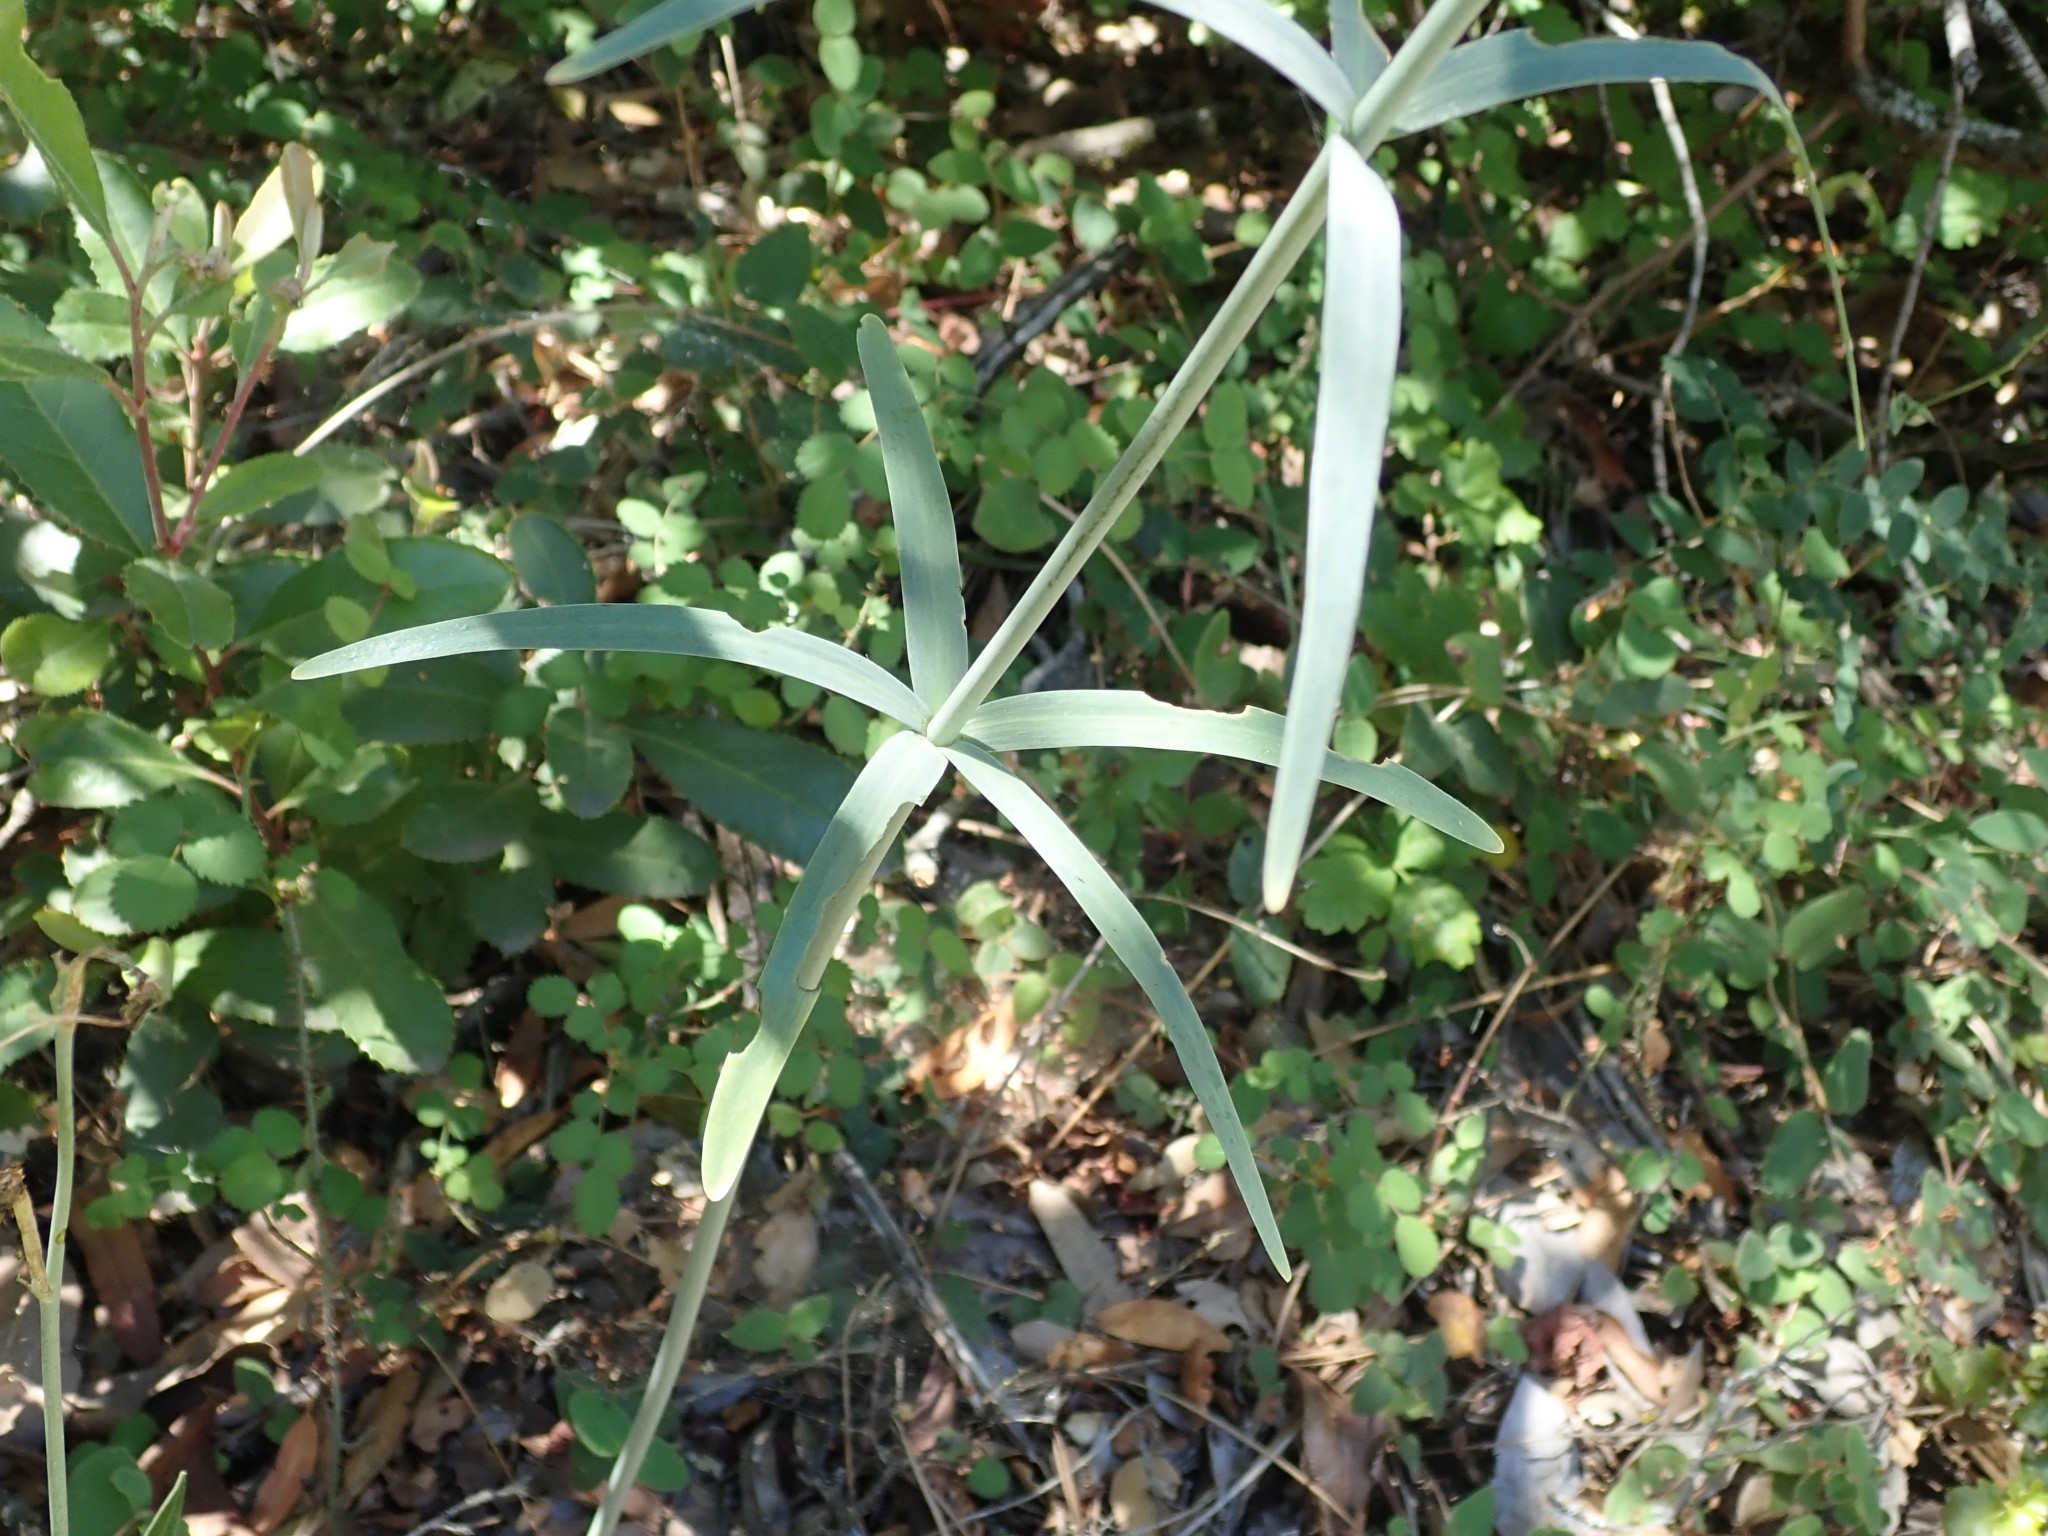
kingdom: Plantae
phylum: Tracheophyta
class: Liliopsida
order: Liliales
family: Liliaceae
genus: Fritillaria
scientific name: Fritillaria affinis
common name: Ojai fritillary
